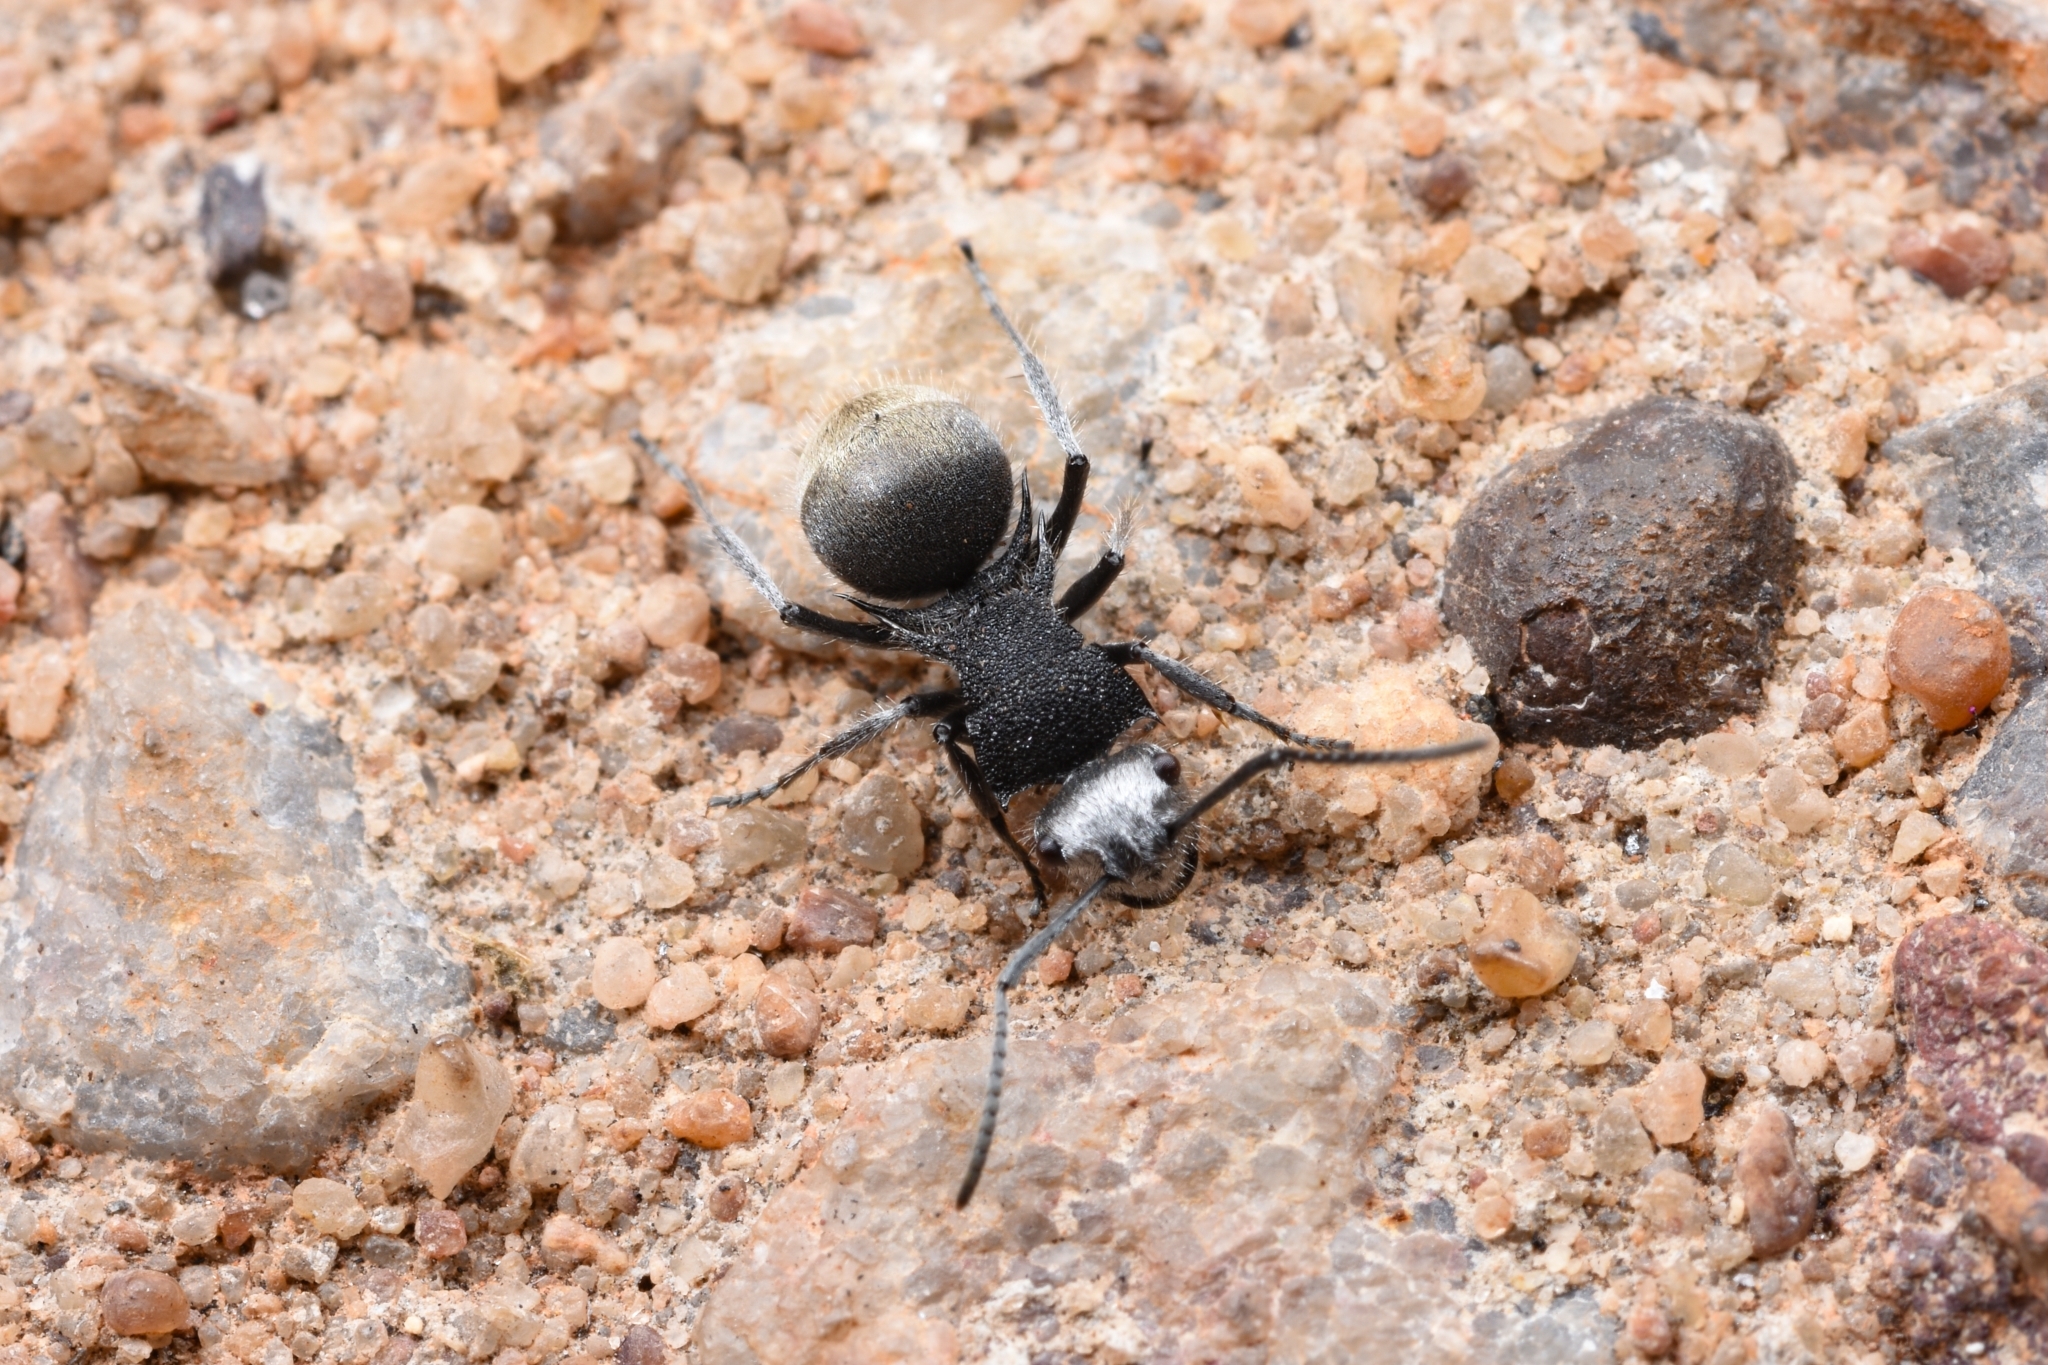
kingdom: Animalia
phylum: Arthropoda
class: Insecta
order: Hymenoptera
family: Formicidae
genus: Polyrhachis
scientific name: Polyrhachis senilis
